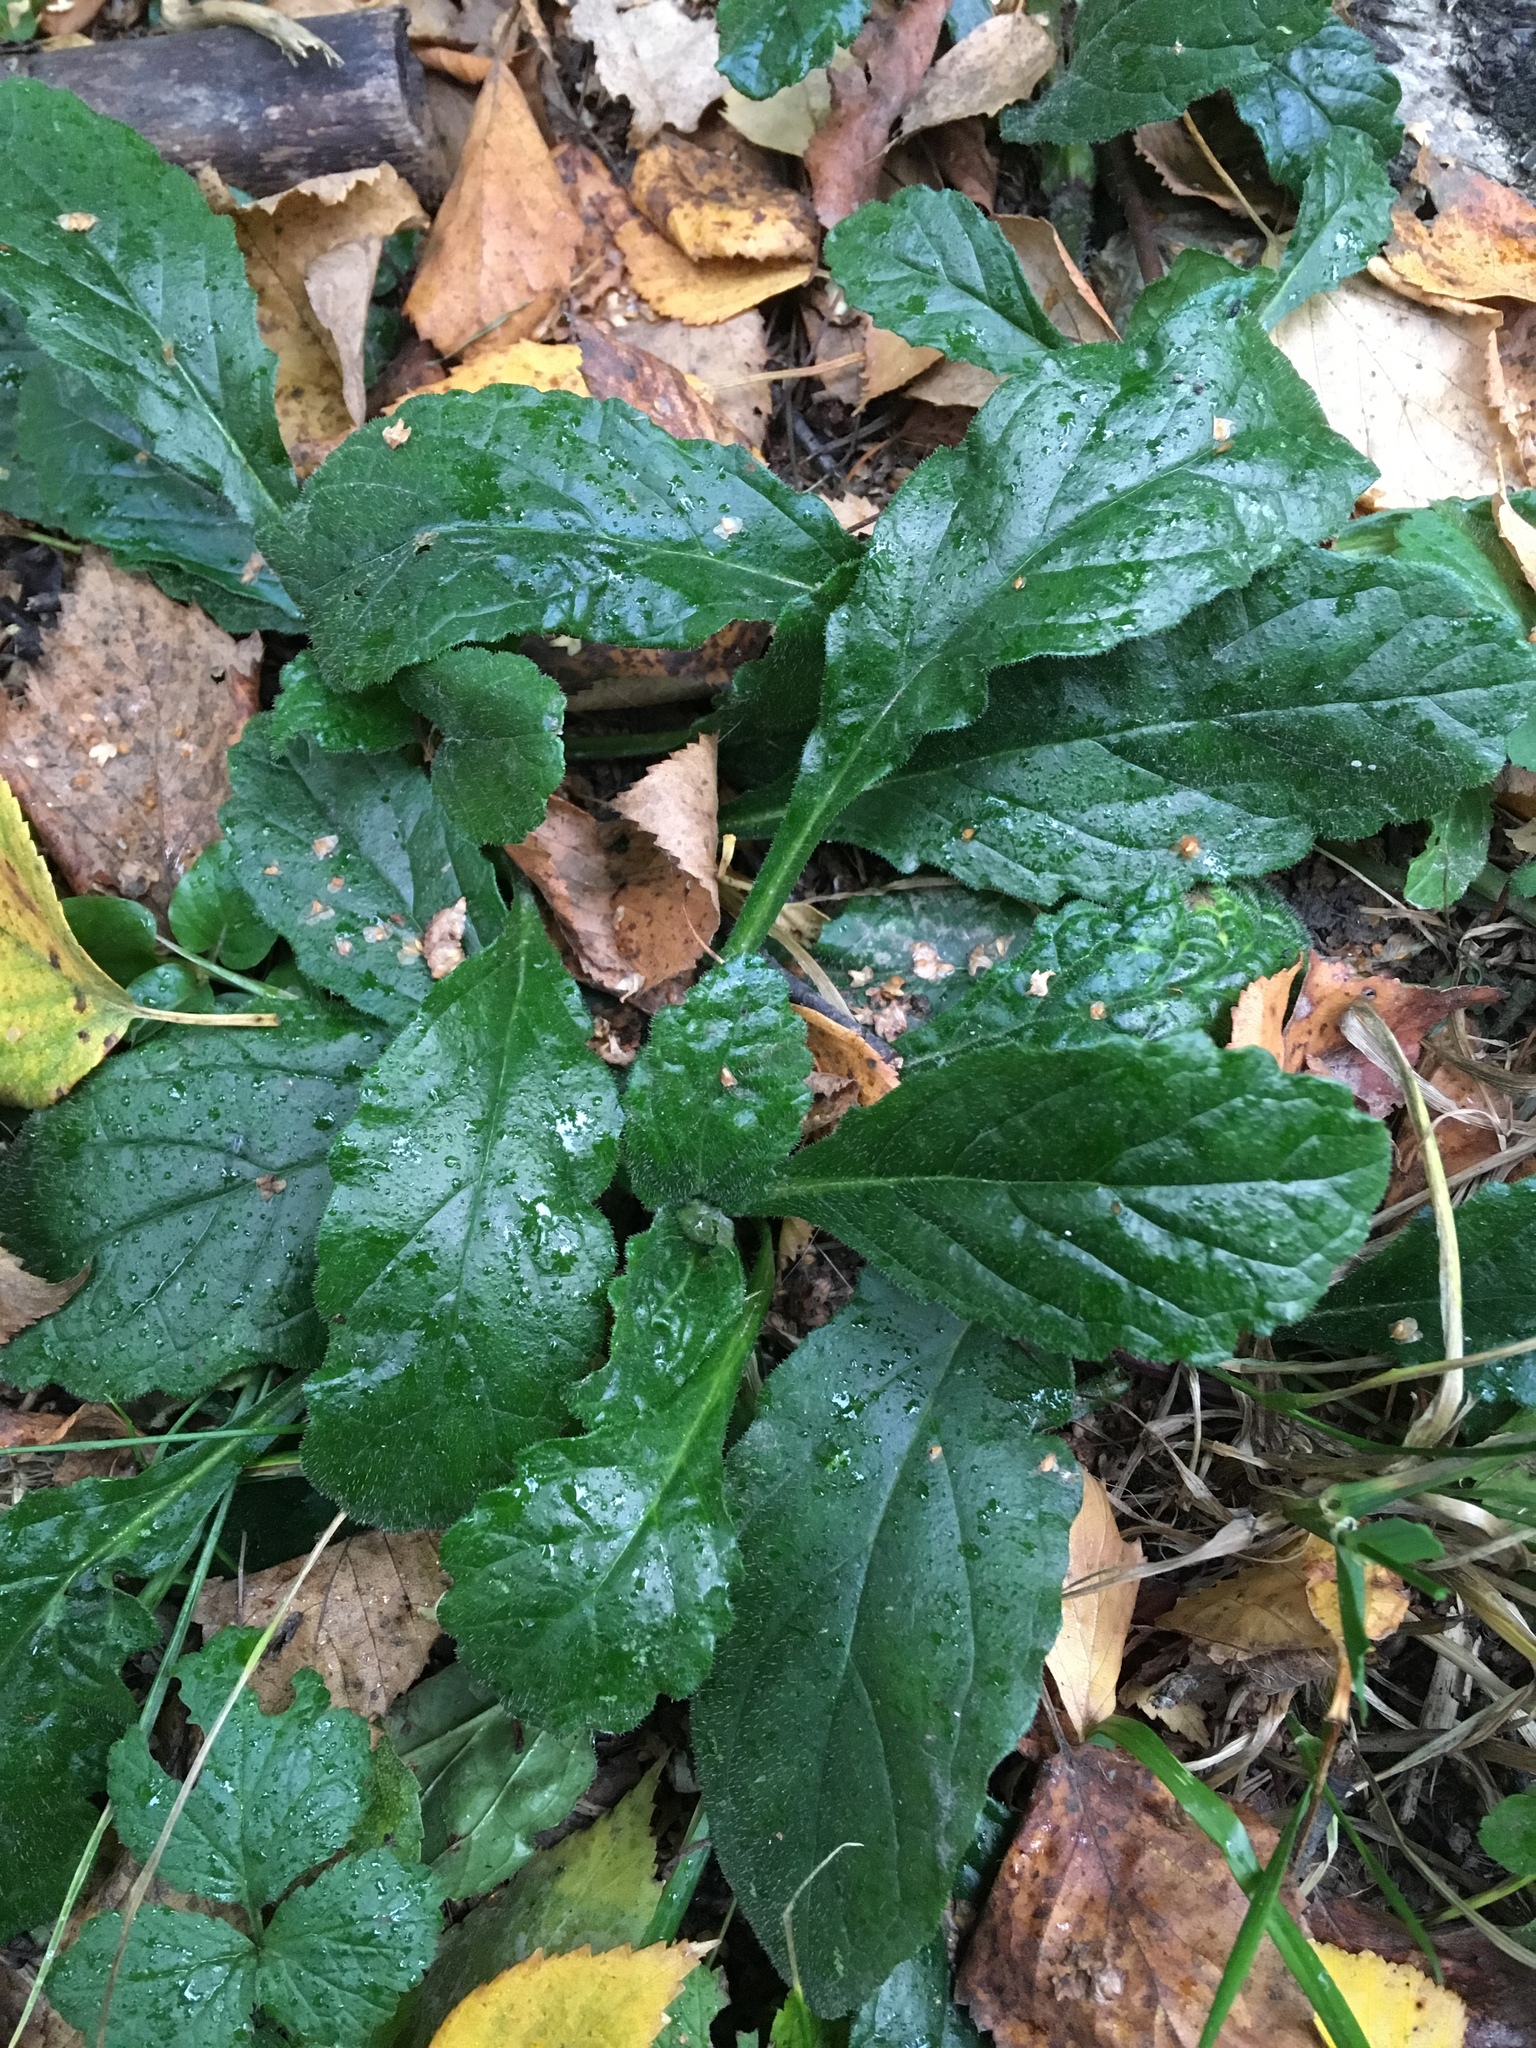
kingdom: Plantae
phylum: Tracheophyta
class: Magnoliopsida
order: Lamiales
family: Lamiaceae
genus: Ajuga
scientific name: Ajuga reptans
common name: Bugle
